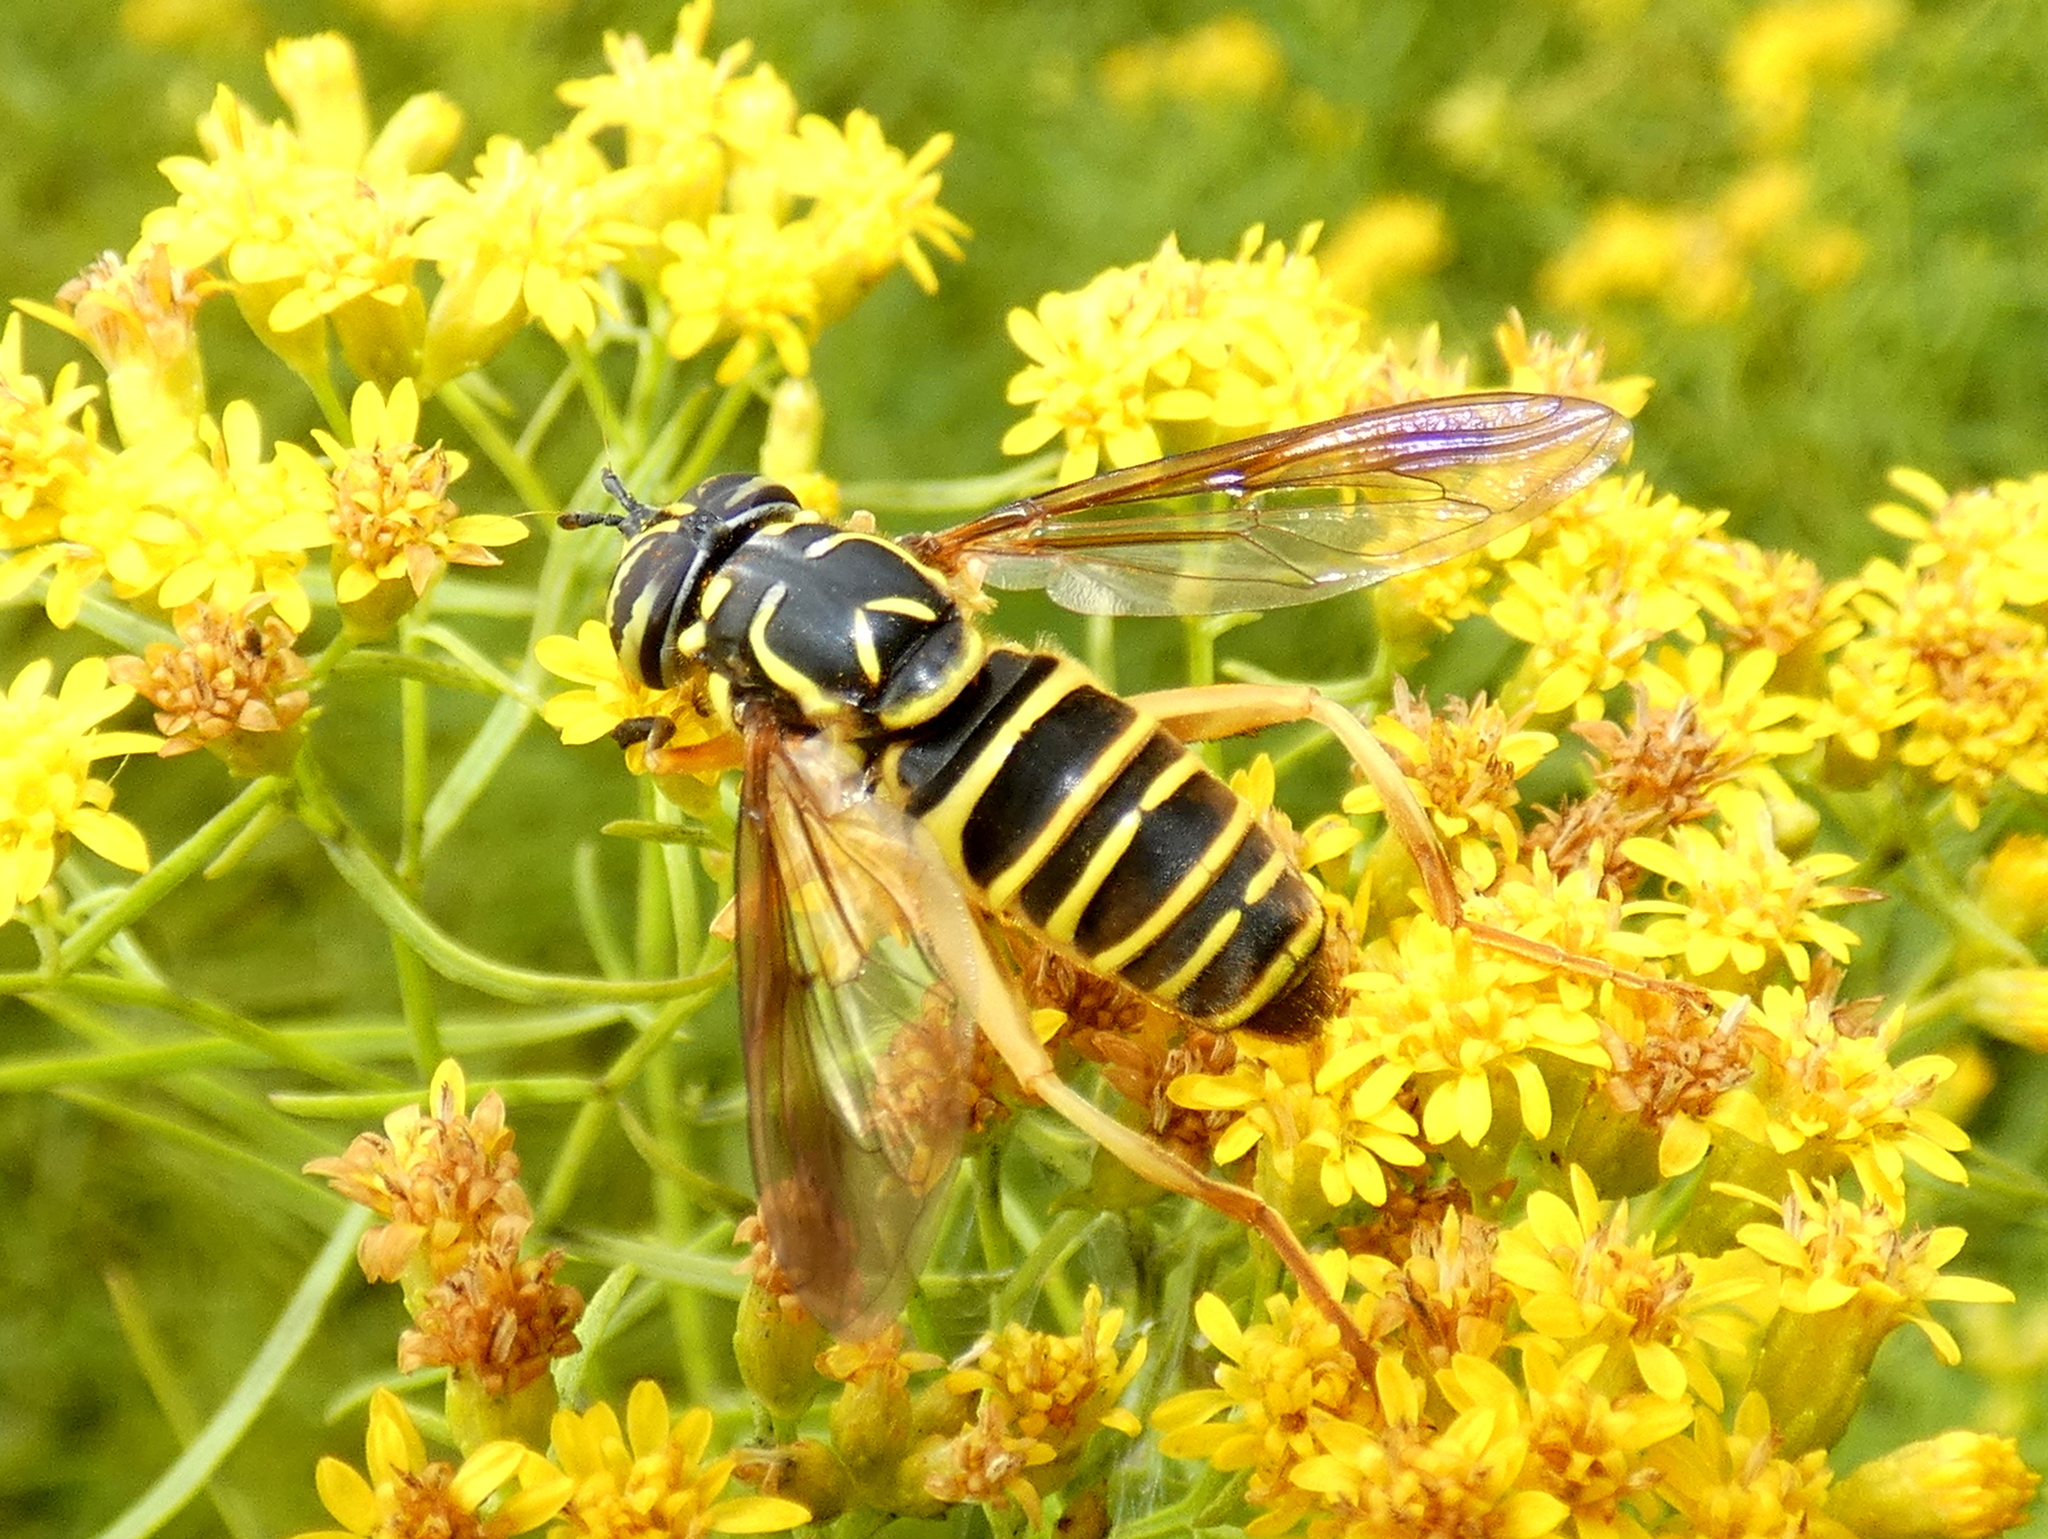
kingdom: Animalia
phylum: Arthropoda
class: Insecta
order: Diptera
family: Syrphidae
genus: Spilomyia
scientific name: Spilomyia longicornis
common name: Eastern hornet fly
